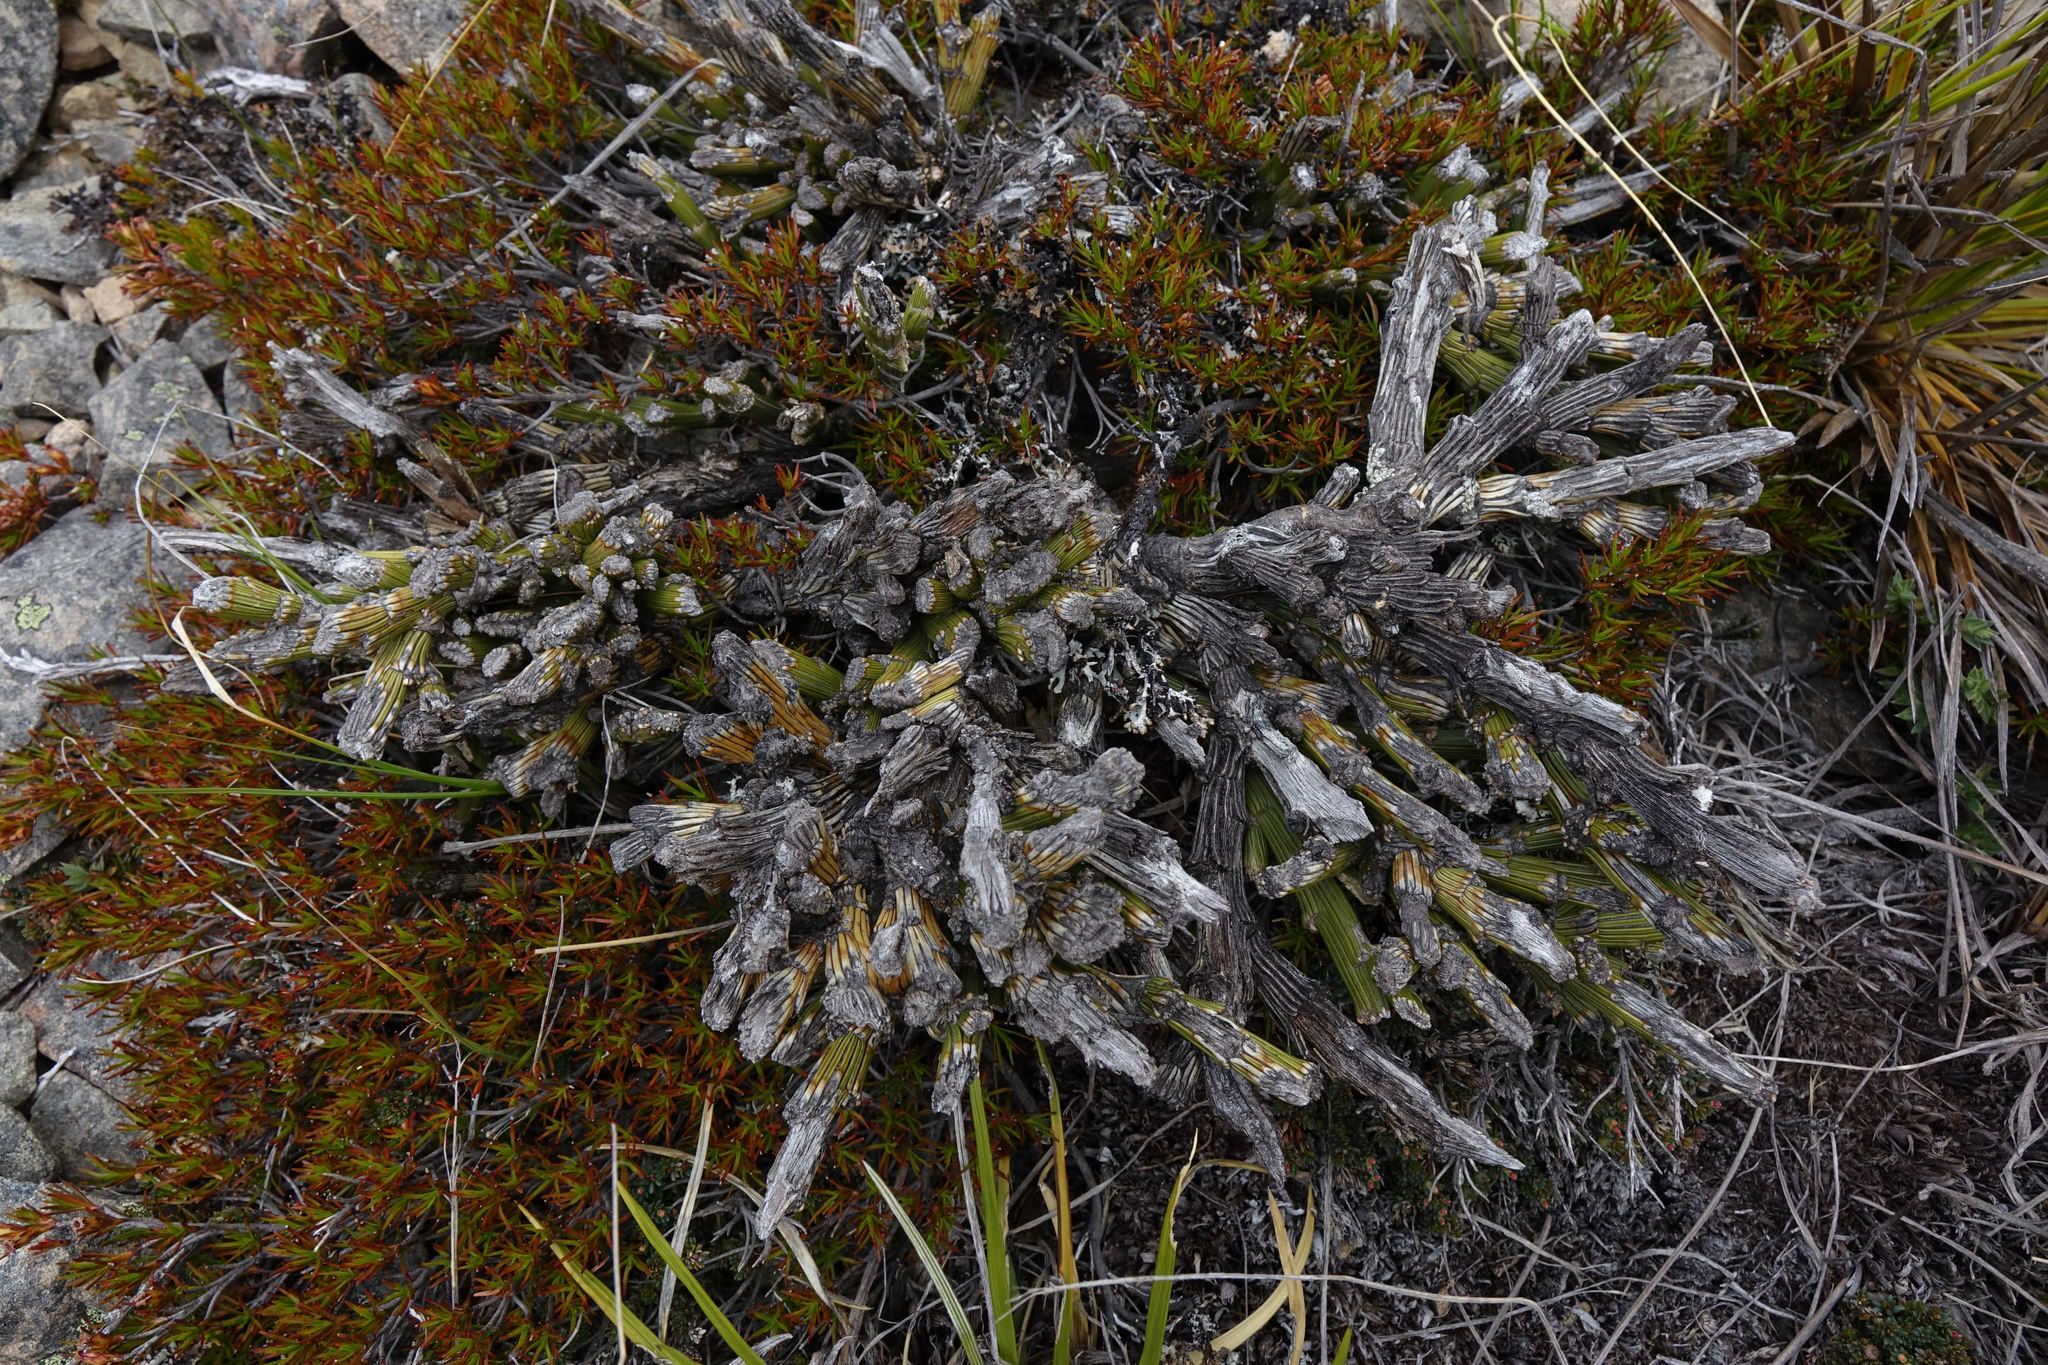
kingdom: Plantae
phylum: Tracheophyta
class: Magnoliopsida
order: Fabales
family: Fabaceae
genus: Carmichaelia
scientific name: Carmichaelia crassicaulis
